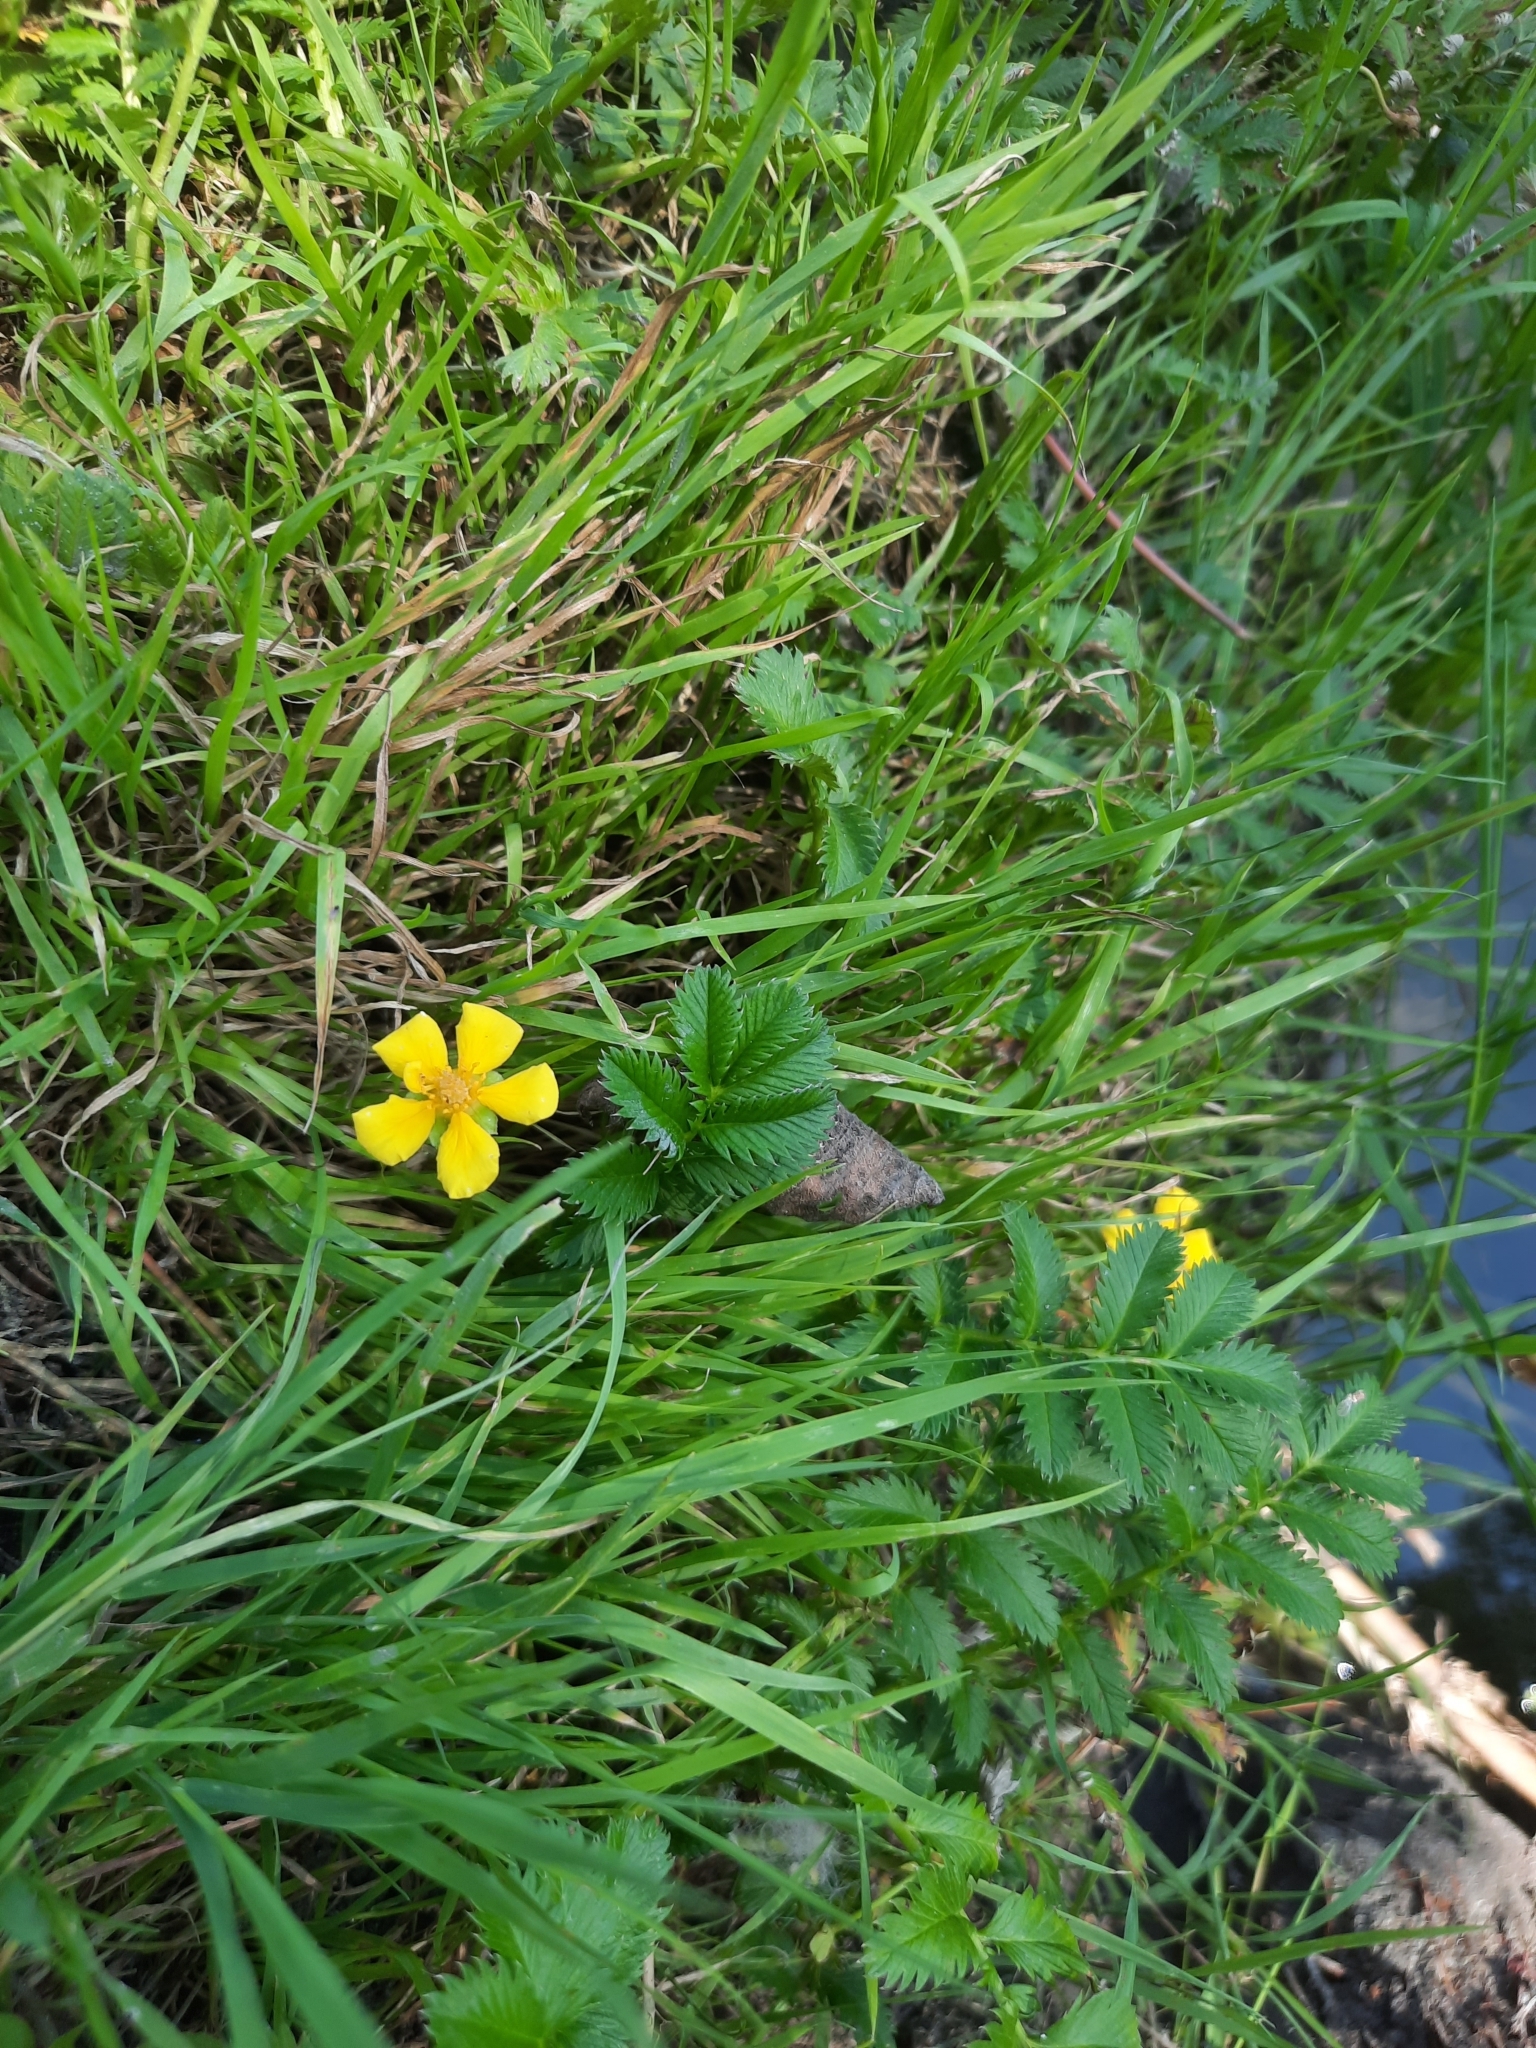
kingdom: Plantae
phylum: Tracheophyta
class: Magnoliopsida
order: Rosales
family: Rosaceae
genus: Argentina
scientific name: Argentina anserina
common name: Common silverweed
